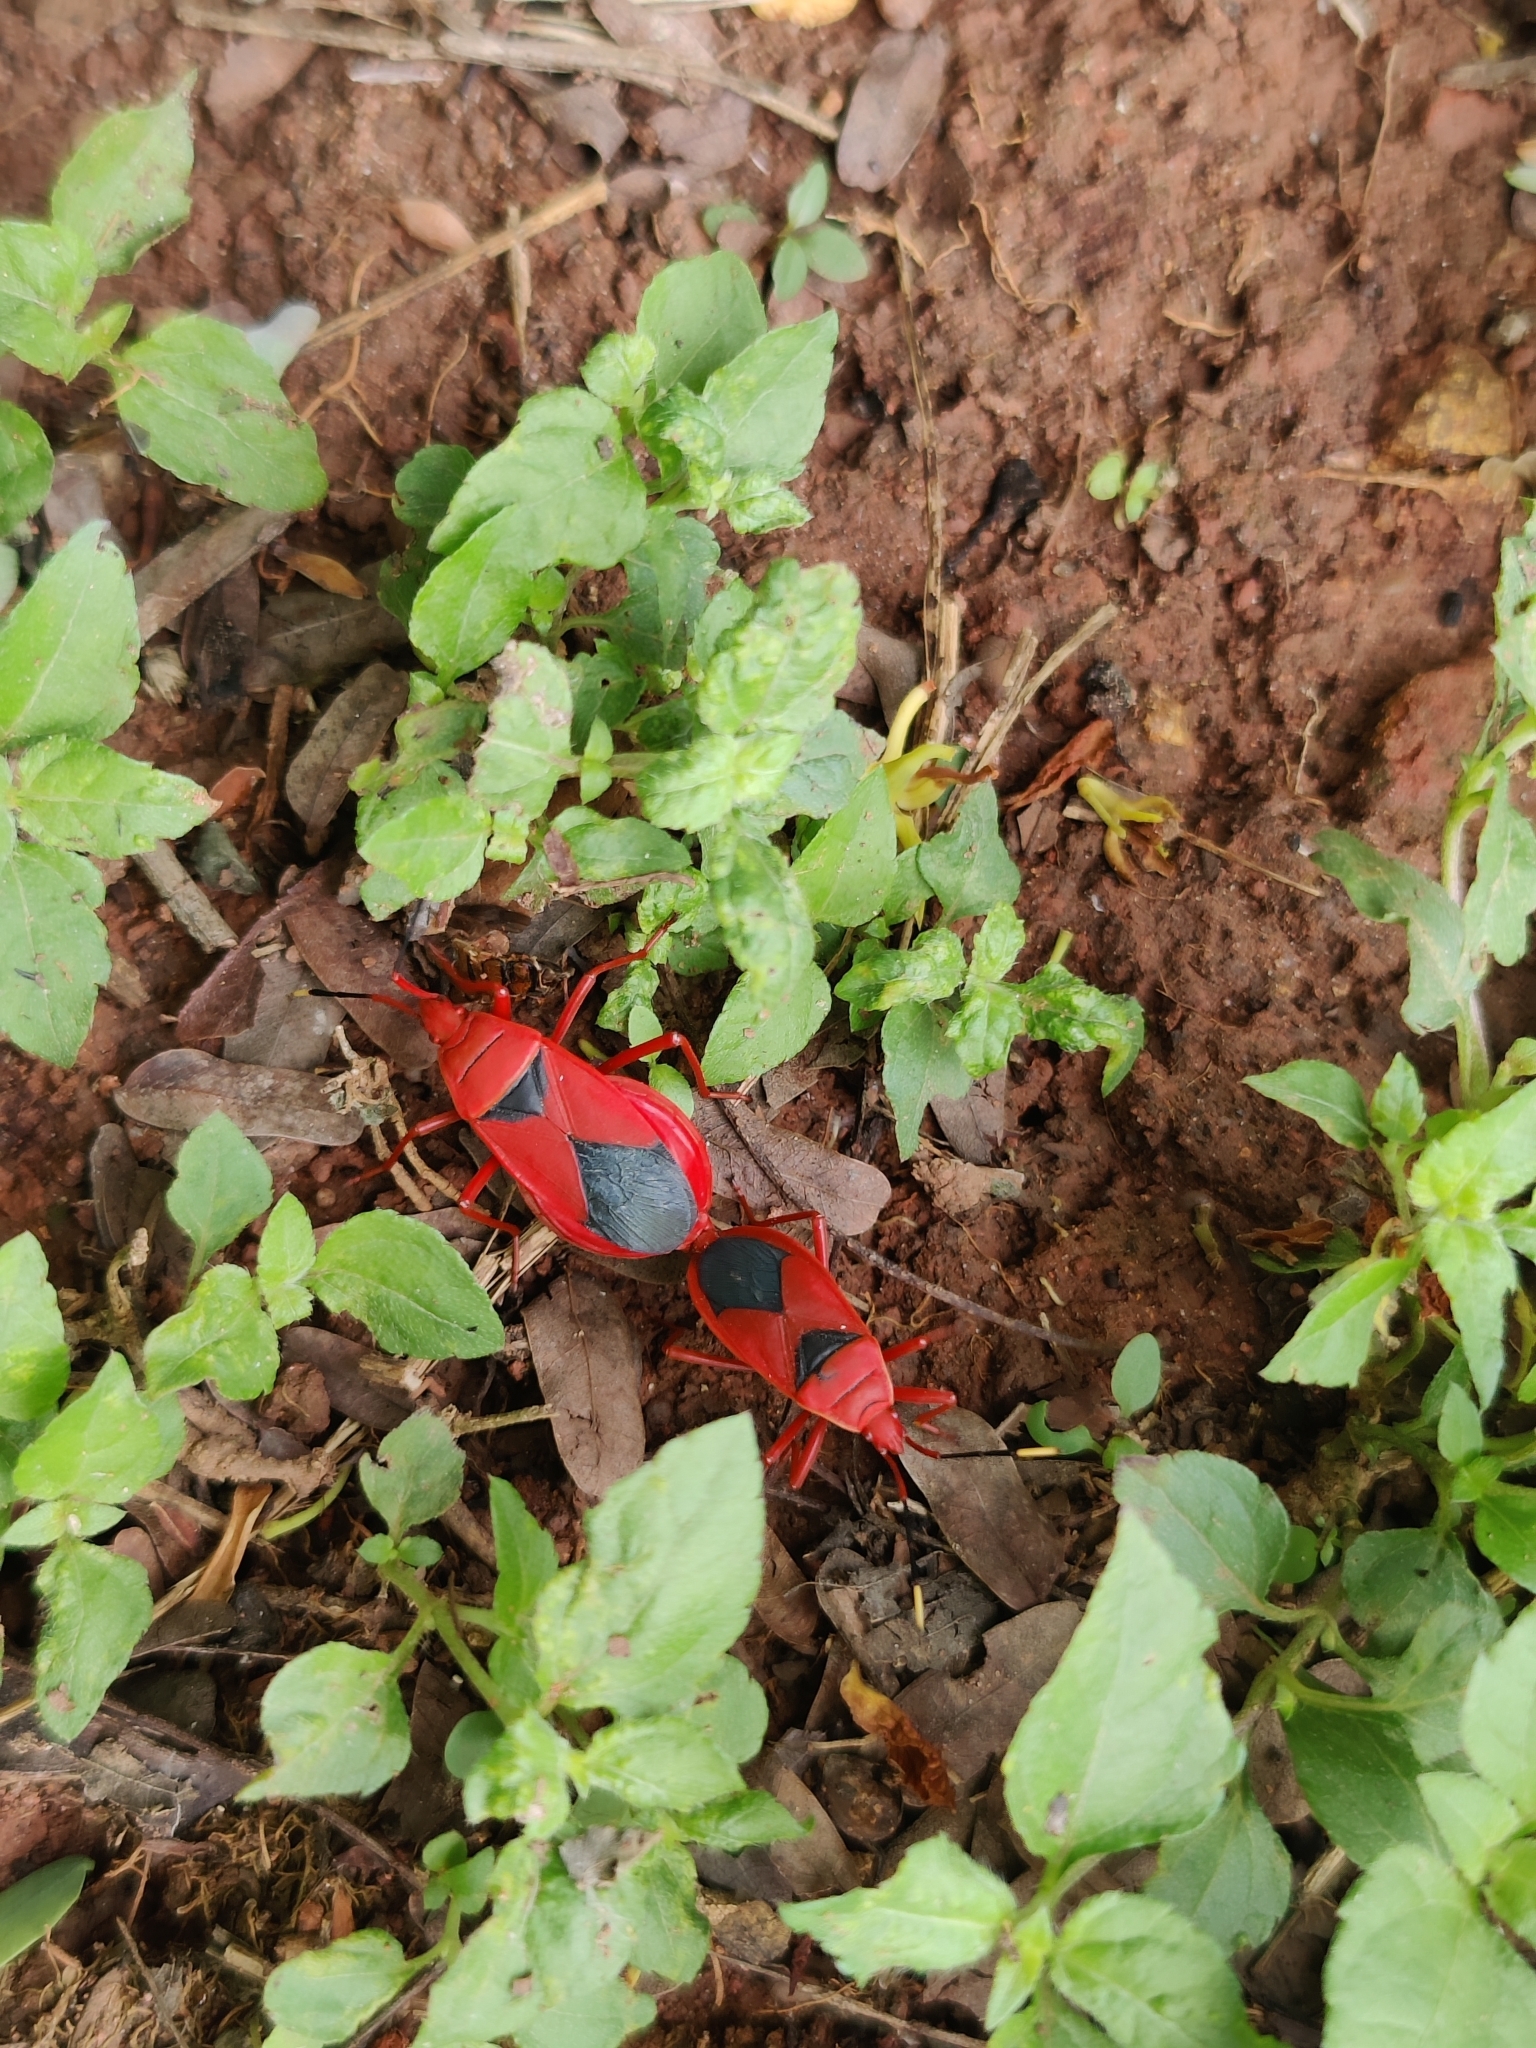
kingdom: Animalia
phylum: Arthropoda
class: Insecta
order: Hemiptera
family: Pyrrhocoridae
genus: Probergrothius
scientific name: Probergrothius
